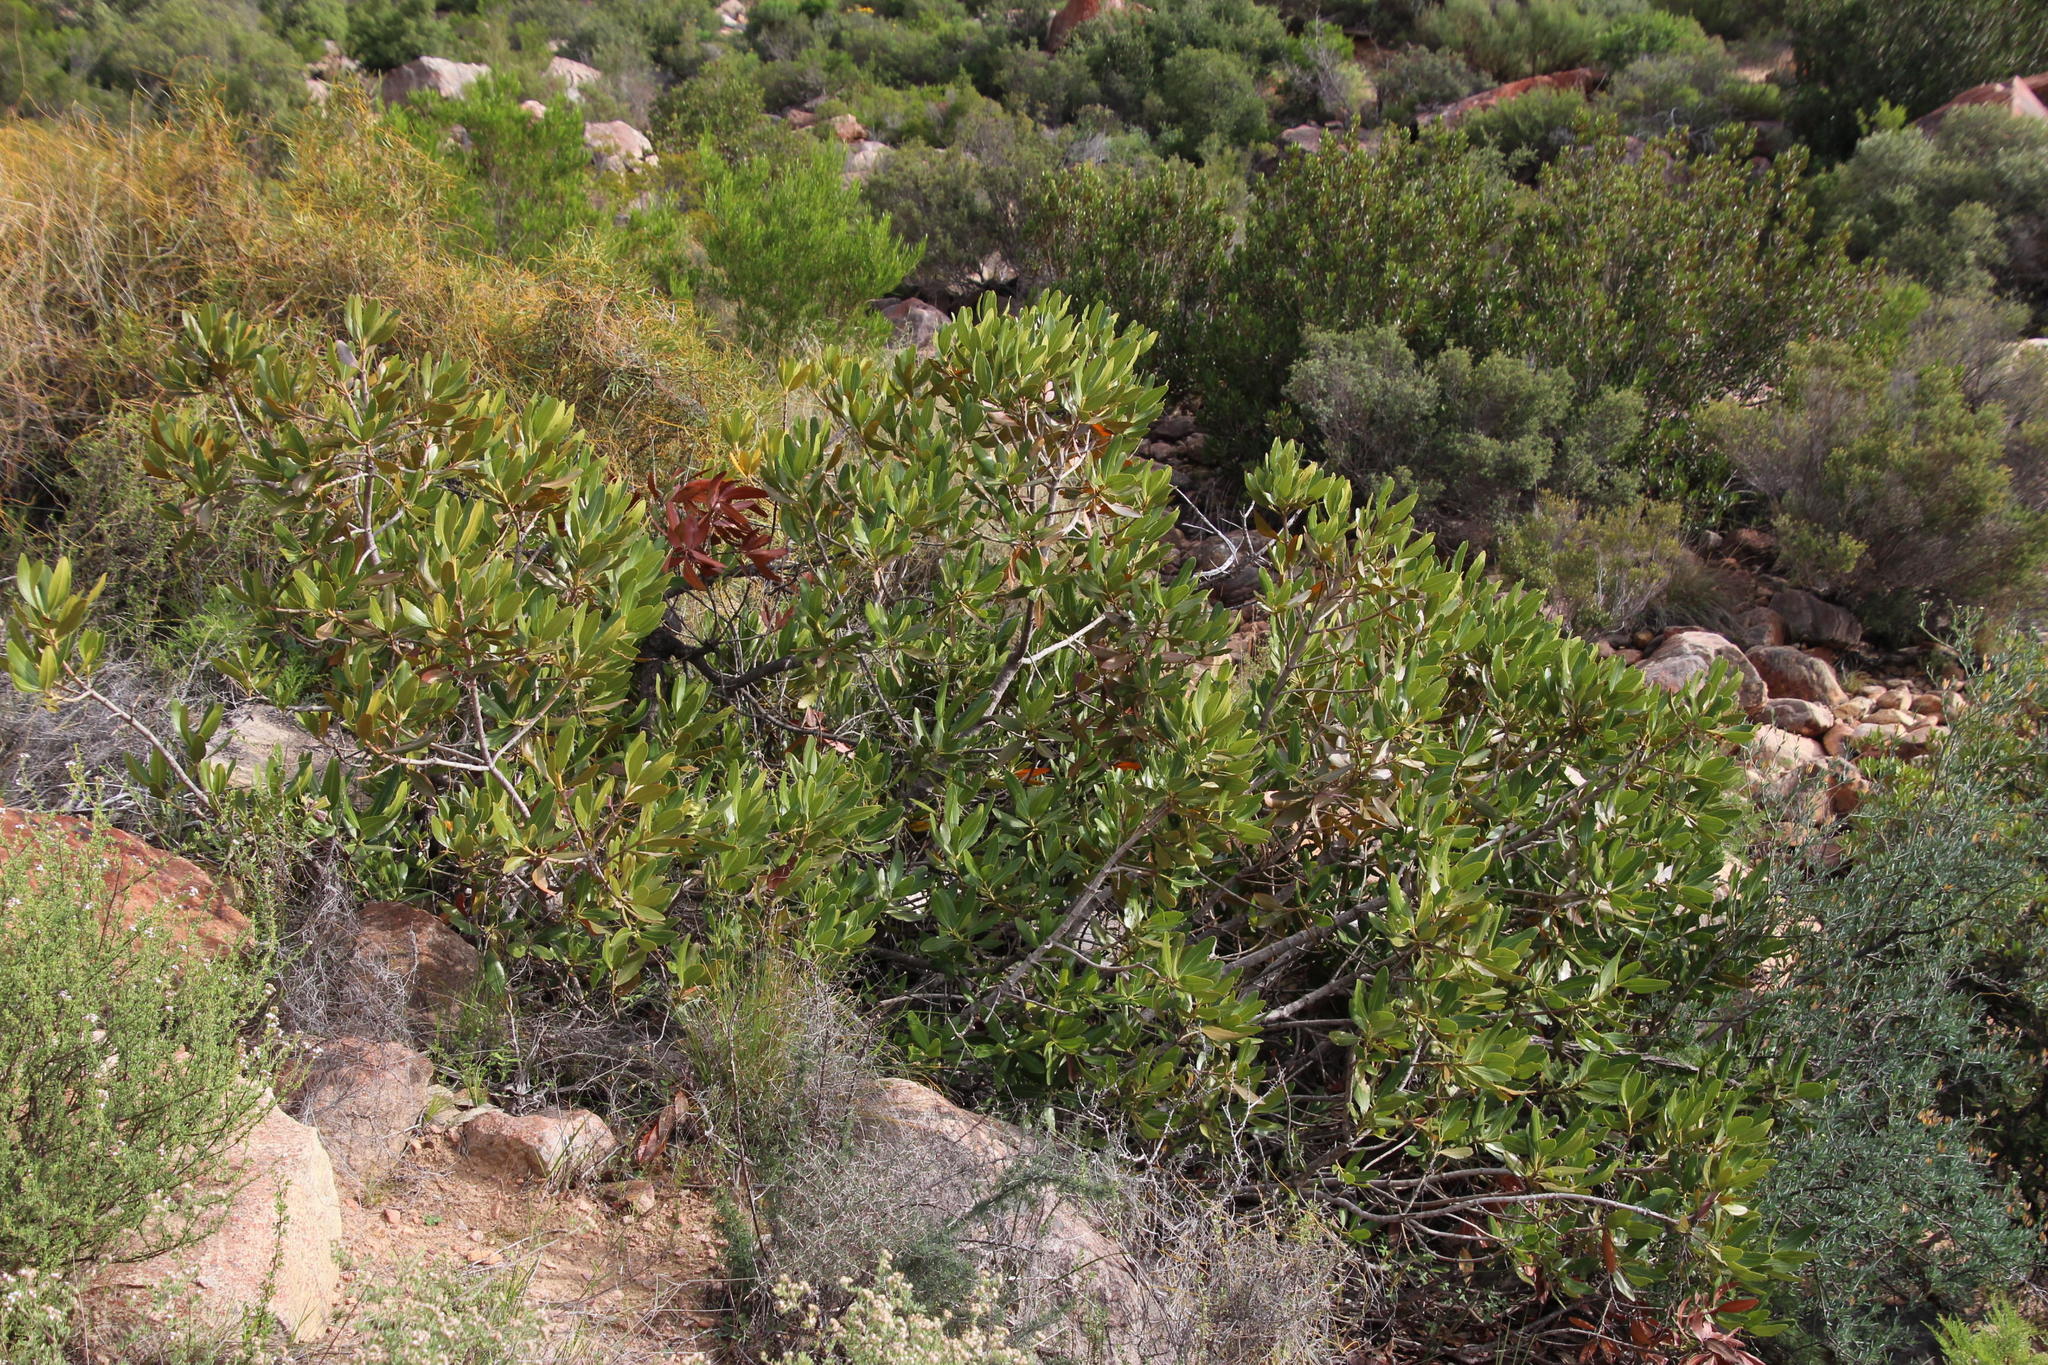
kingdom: Plantae
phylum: Tracheophyta
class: Magnoliopsida
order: Malpighiales
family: Picrodendraceae
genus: Hyaenanche
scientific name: Hyaenanche globosa
